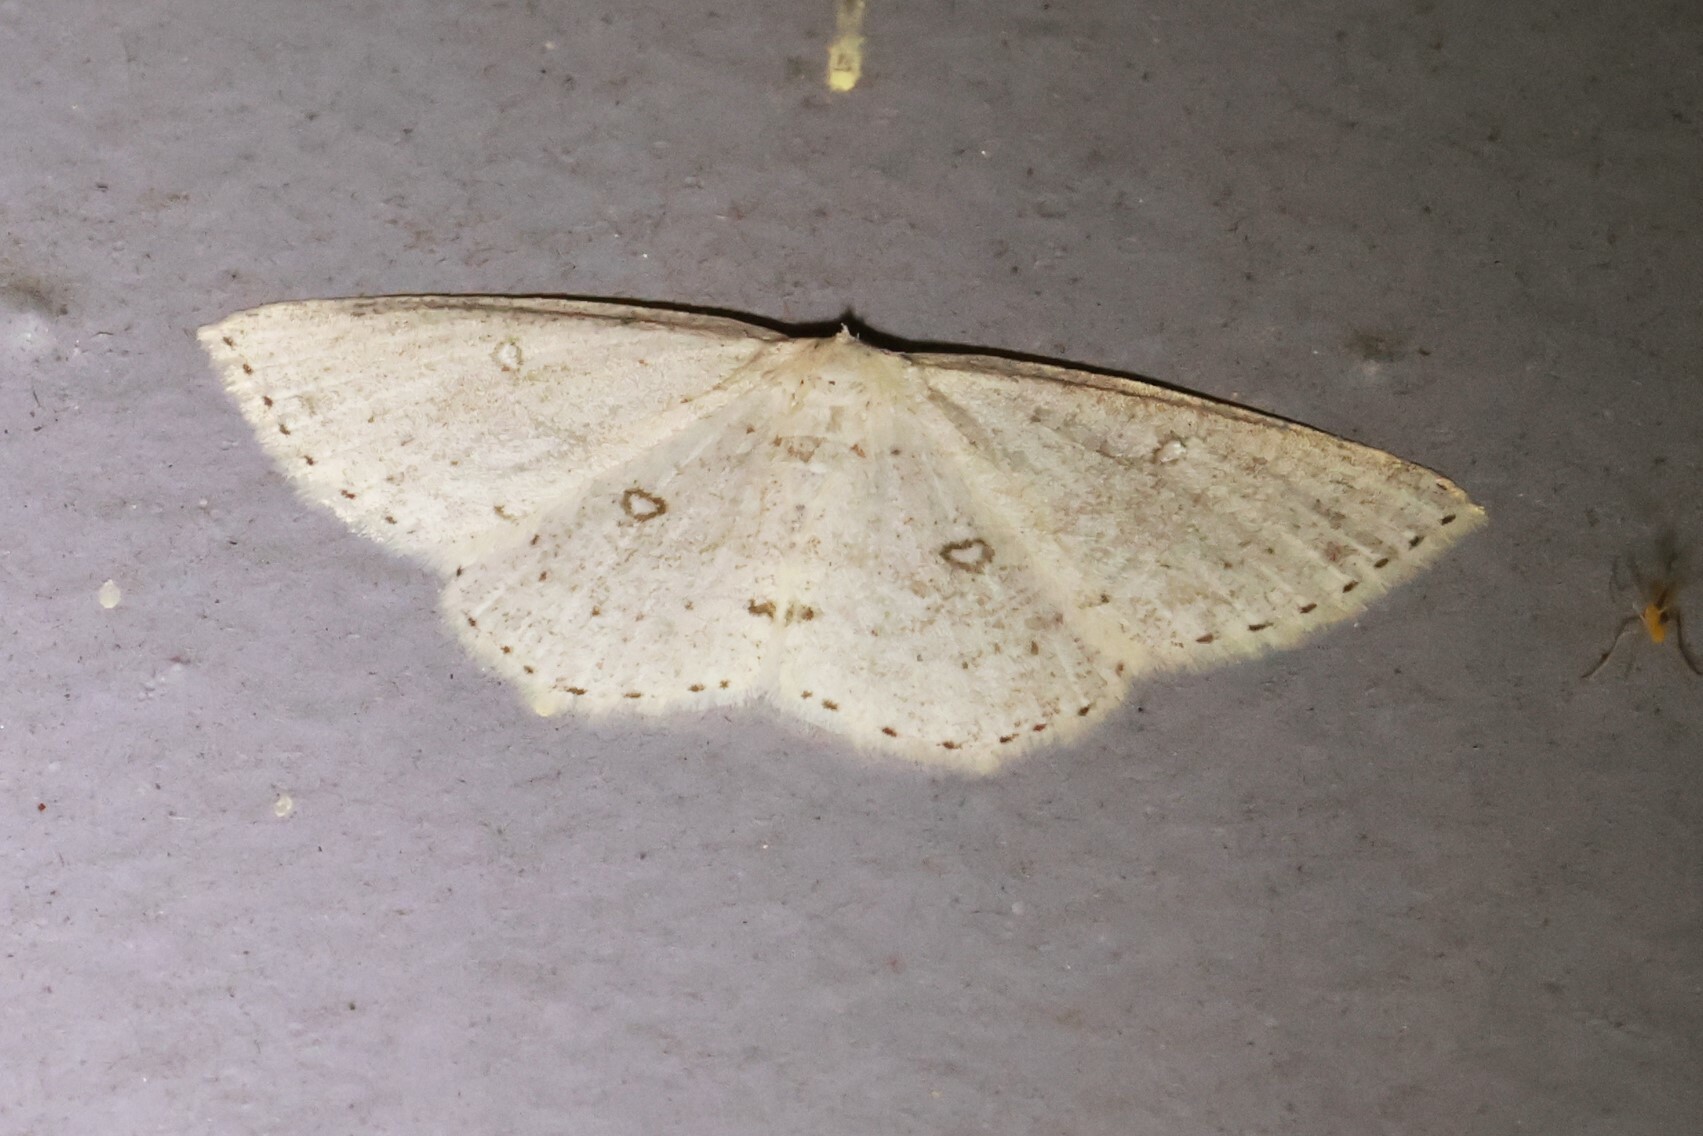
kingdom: Animalia
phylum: Arthropoda
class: Insecta
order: Lepidoptera
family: Geometridae
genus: Cyclophora
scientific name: Cyclophora pendulinaria
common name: Sweet fern geometer
